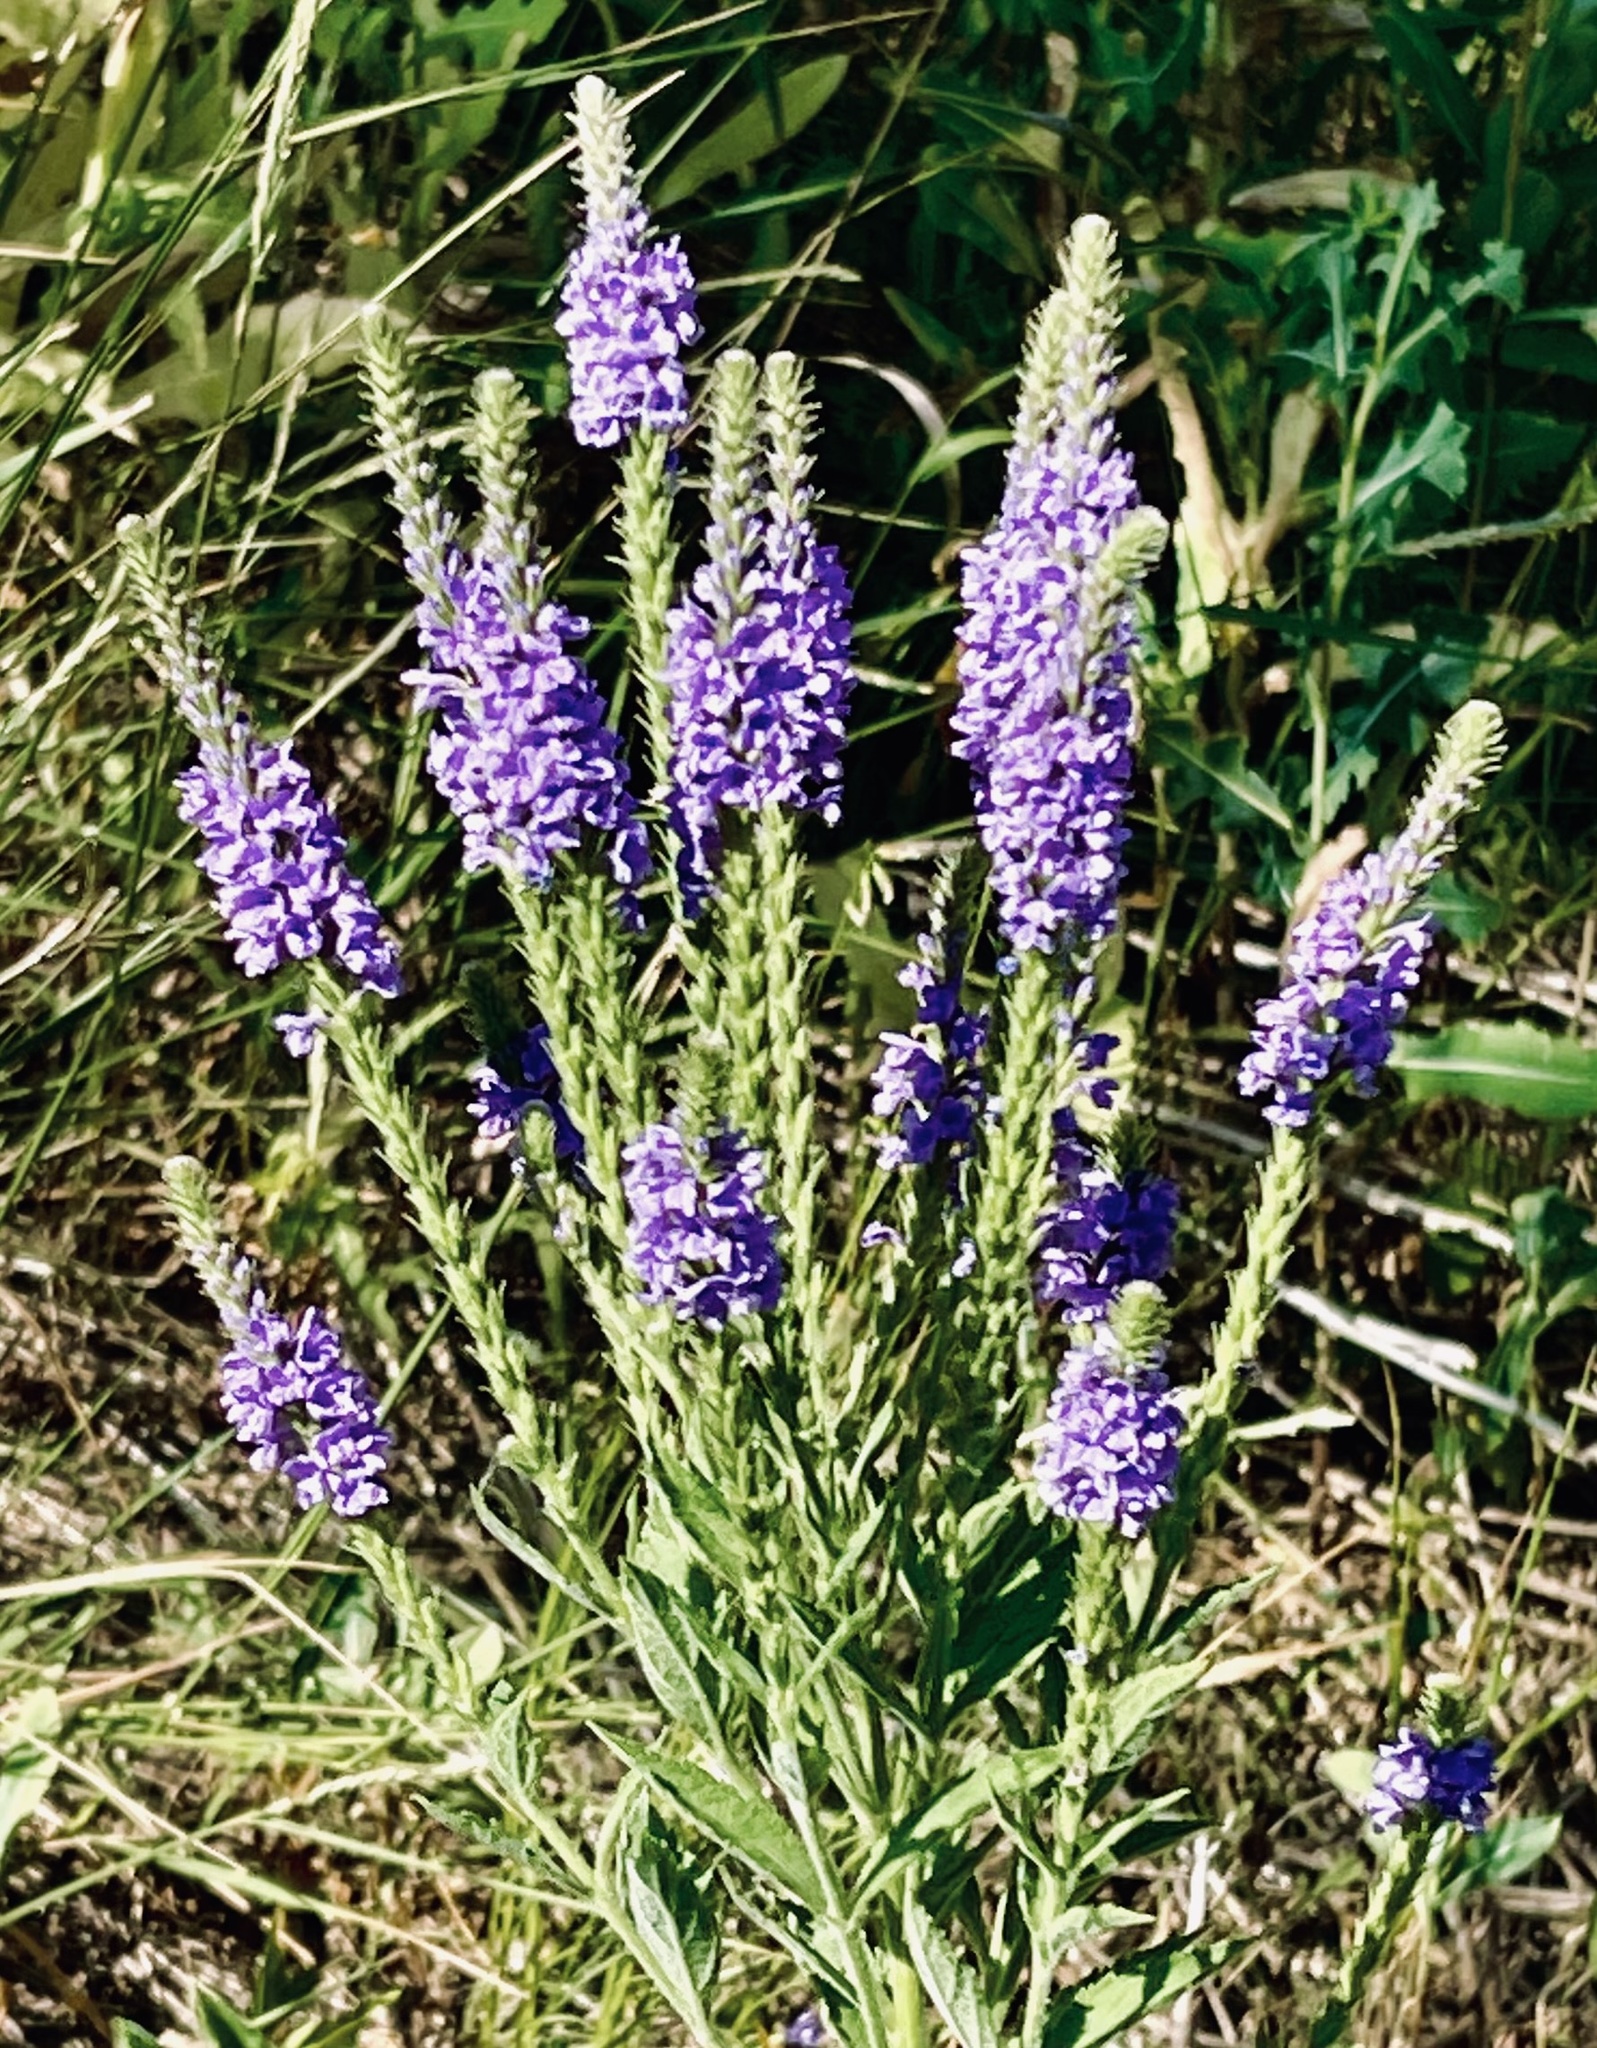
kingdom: Plantae
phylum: Tracheophyta
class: Magnoliopsida
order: Lamiales
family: Verbenaceae
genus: Verbena
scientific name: Verbena stricta
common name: Hoary vervain
